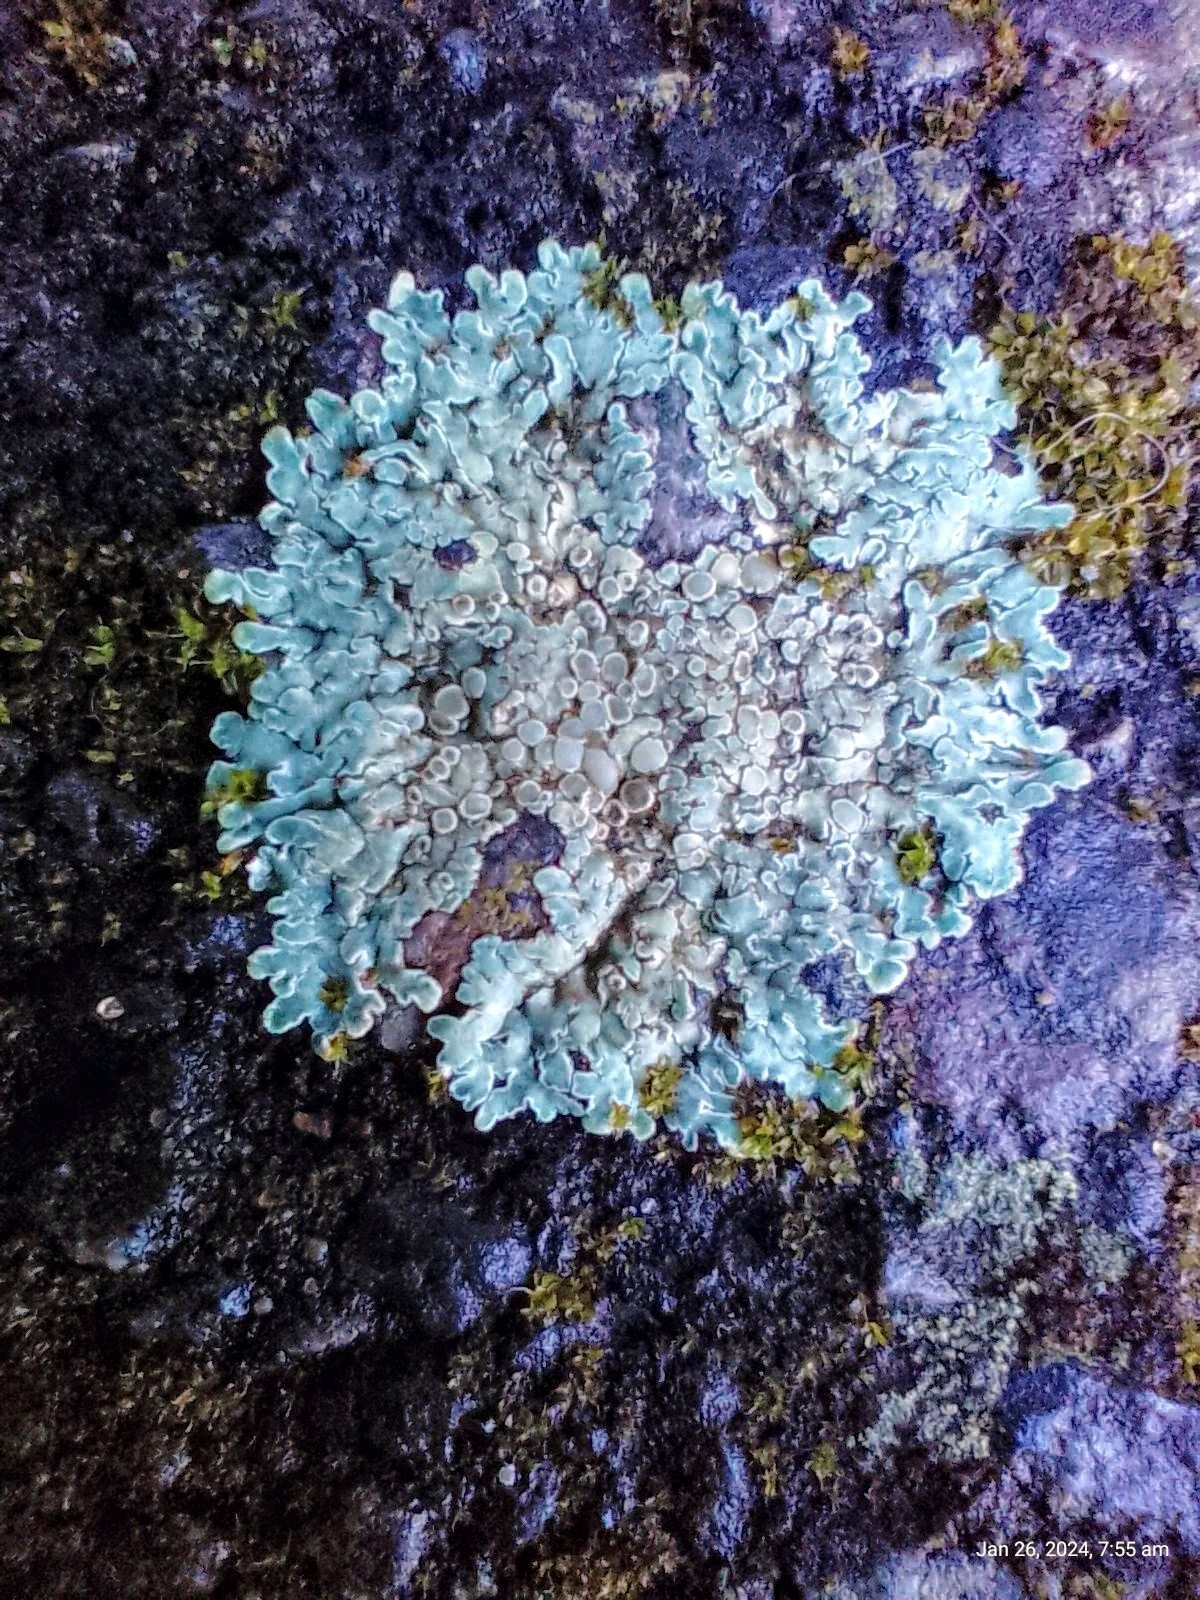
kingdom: Fungi
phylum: Ascomycota
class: Lecanoromycetes
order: Lecanorales
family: Lecanoraceae
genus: Protoparmeliopsis
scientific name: Protoparmeliopsis muralis
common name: Stonewall rim lichen
